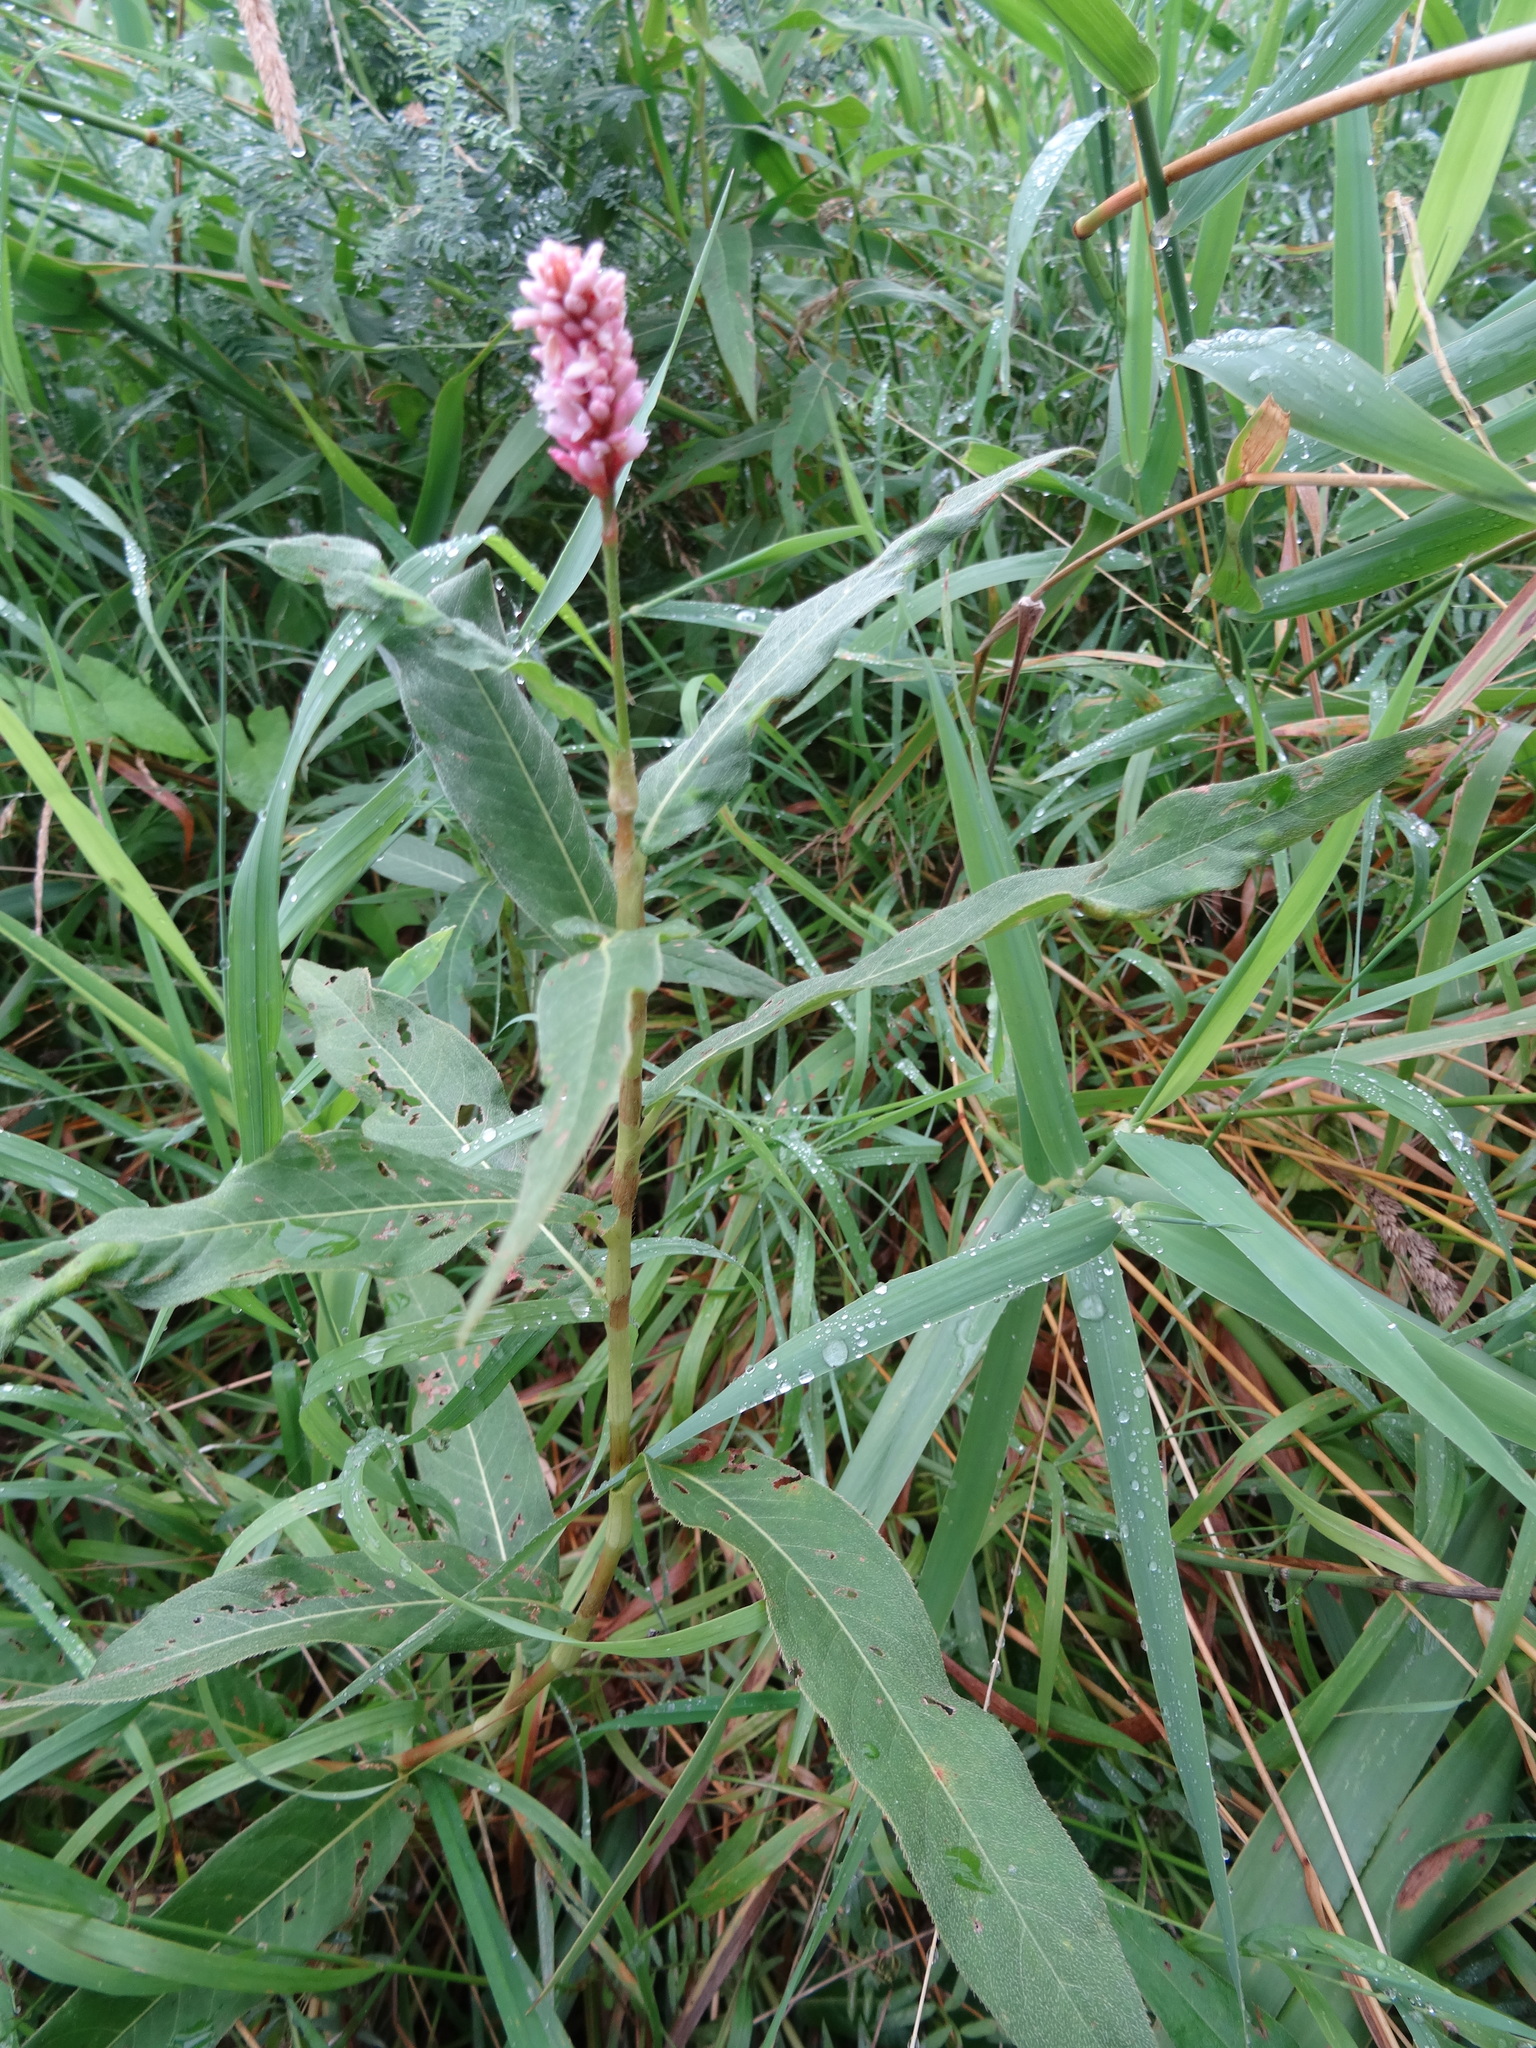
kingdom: Plantae
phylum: Tracheophyta
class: Magnoliopsida
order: Caryophyllales
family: Polygonaceae
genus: Persicaria
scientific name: Persicaria amphibia
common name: Amphibious bistort
